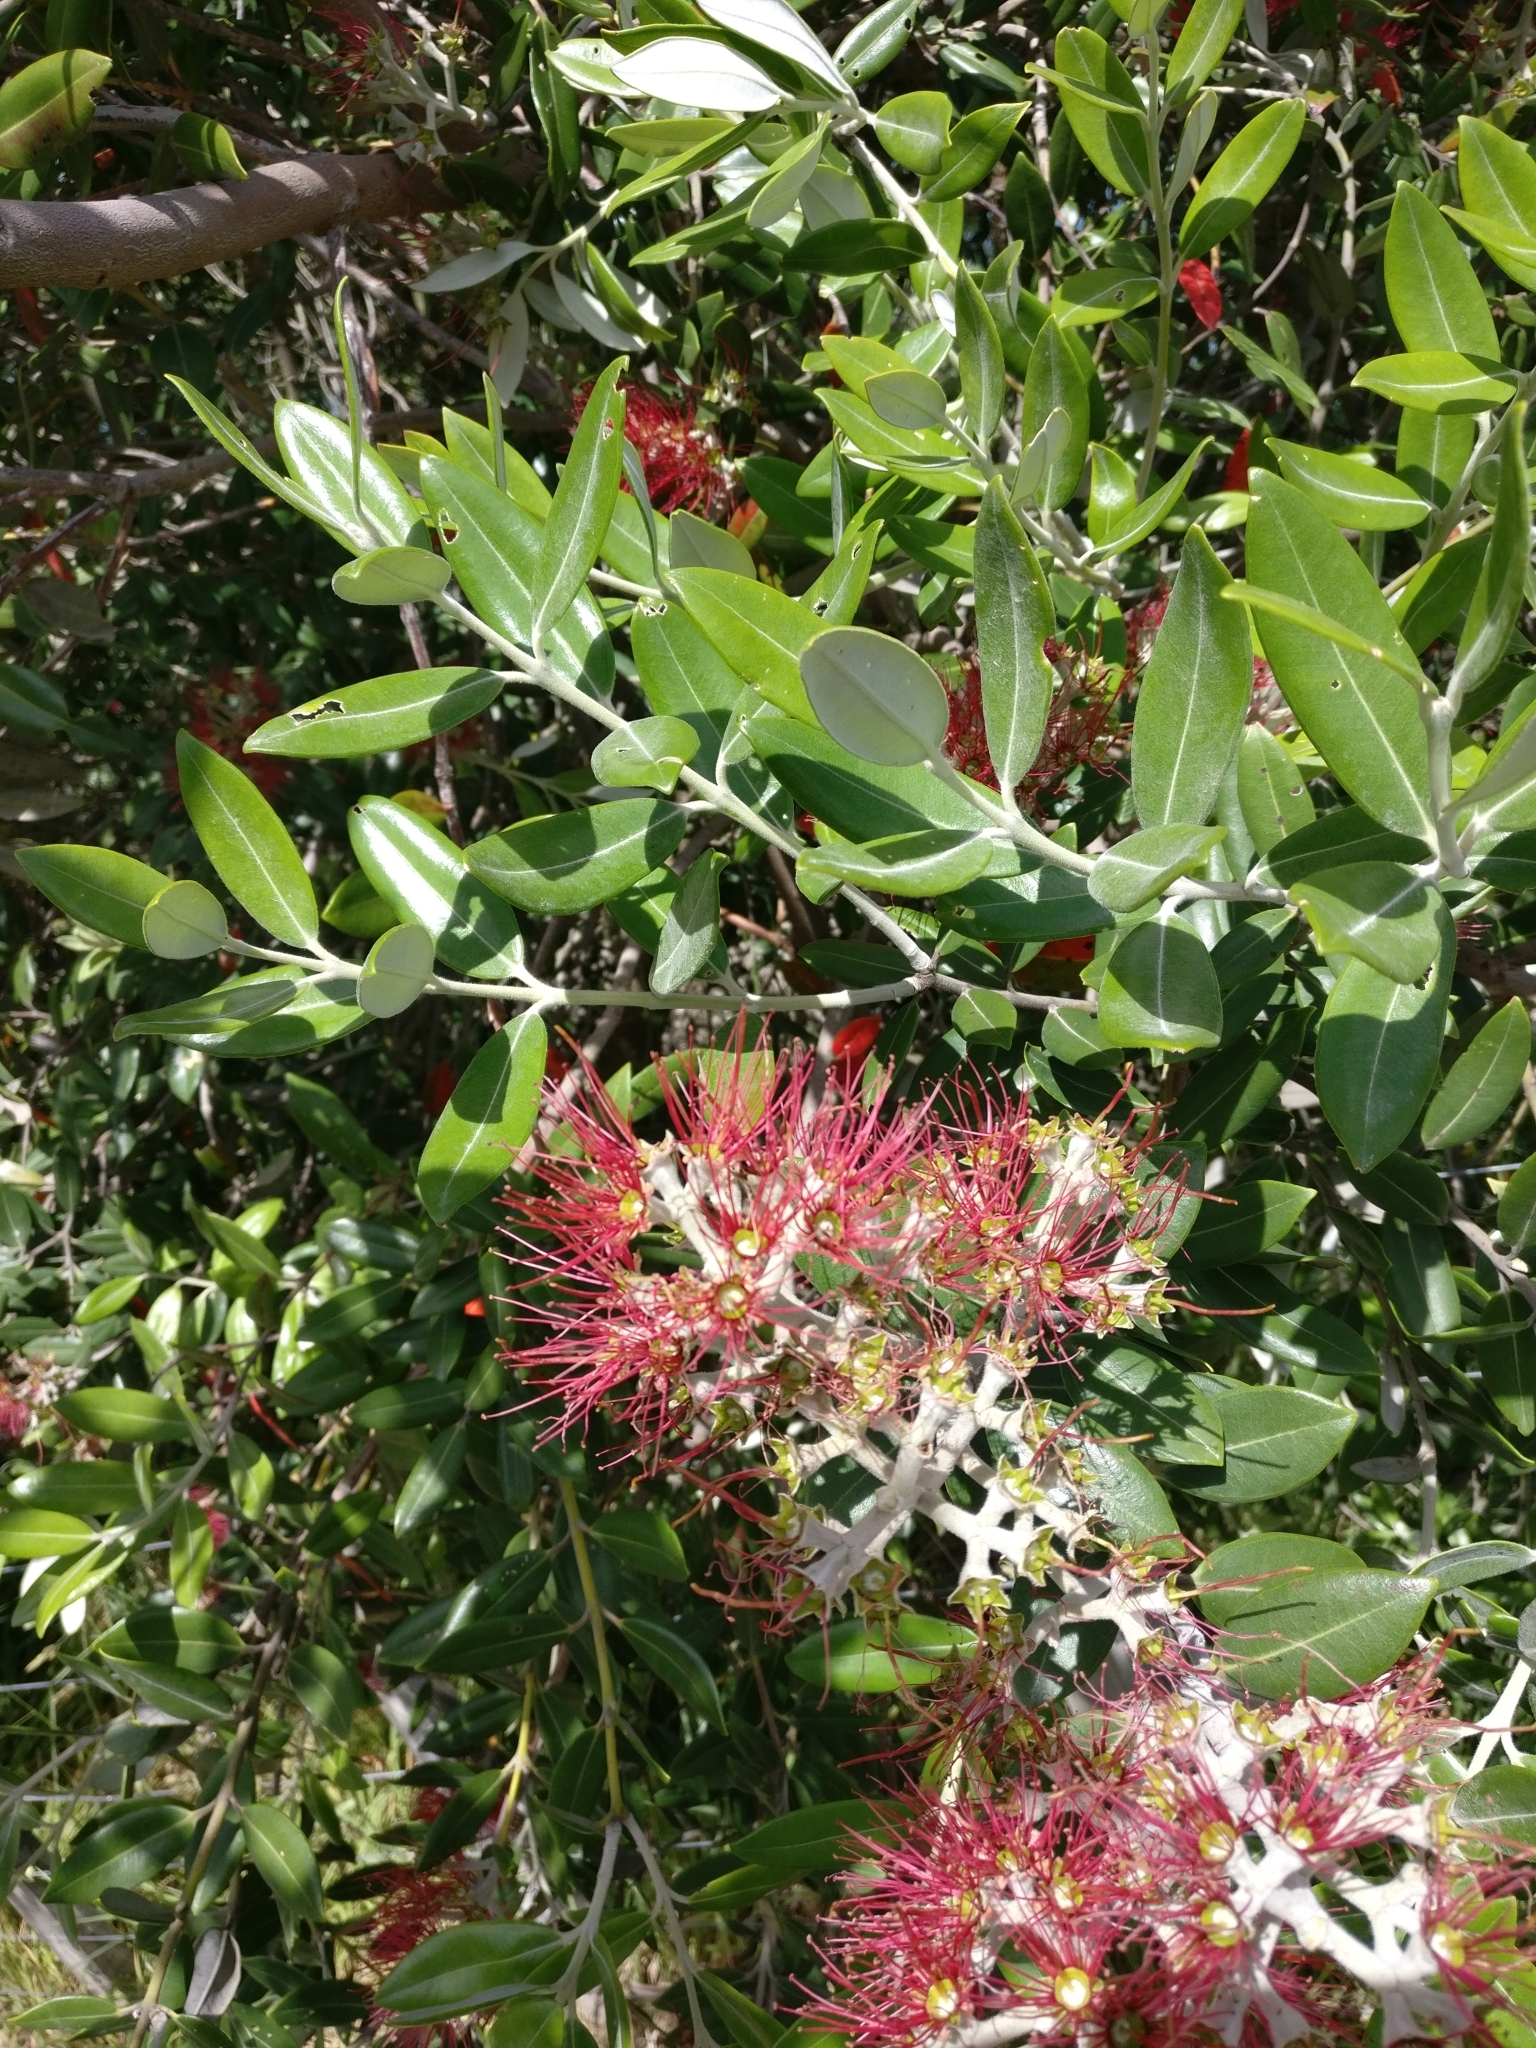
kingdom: Plantae
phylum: Tracheophyta
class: Magnoliopsida
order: Myrtales
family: Myrtaceae
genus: Metrosideros
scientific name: Metrosideros excelsa
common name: New zealand christmastree
